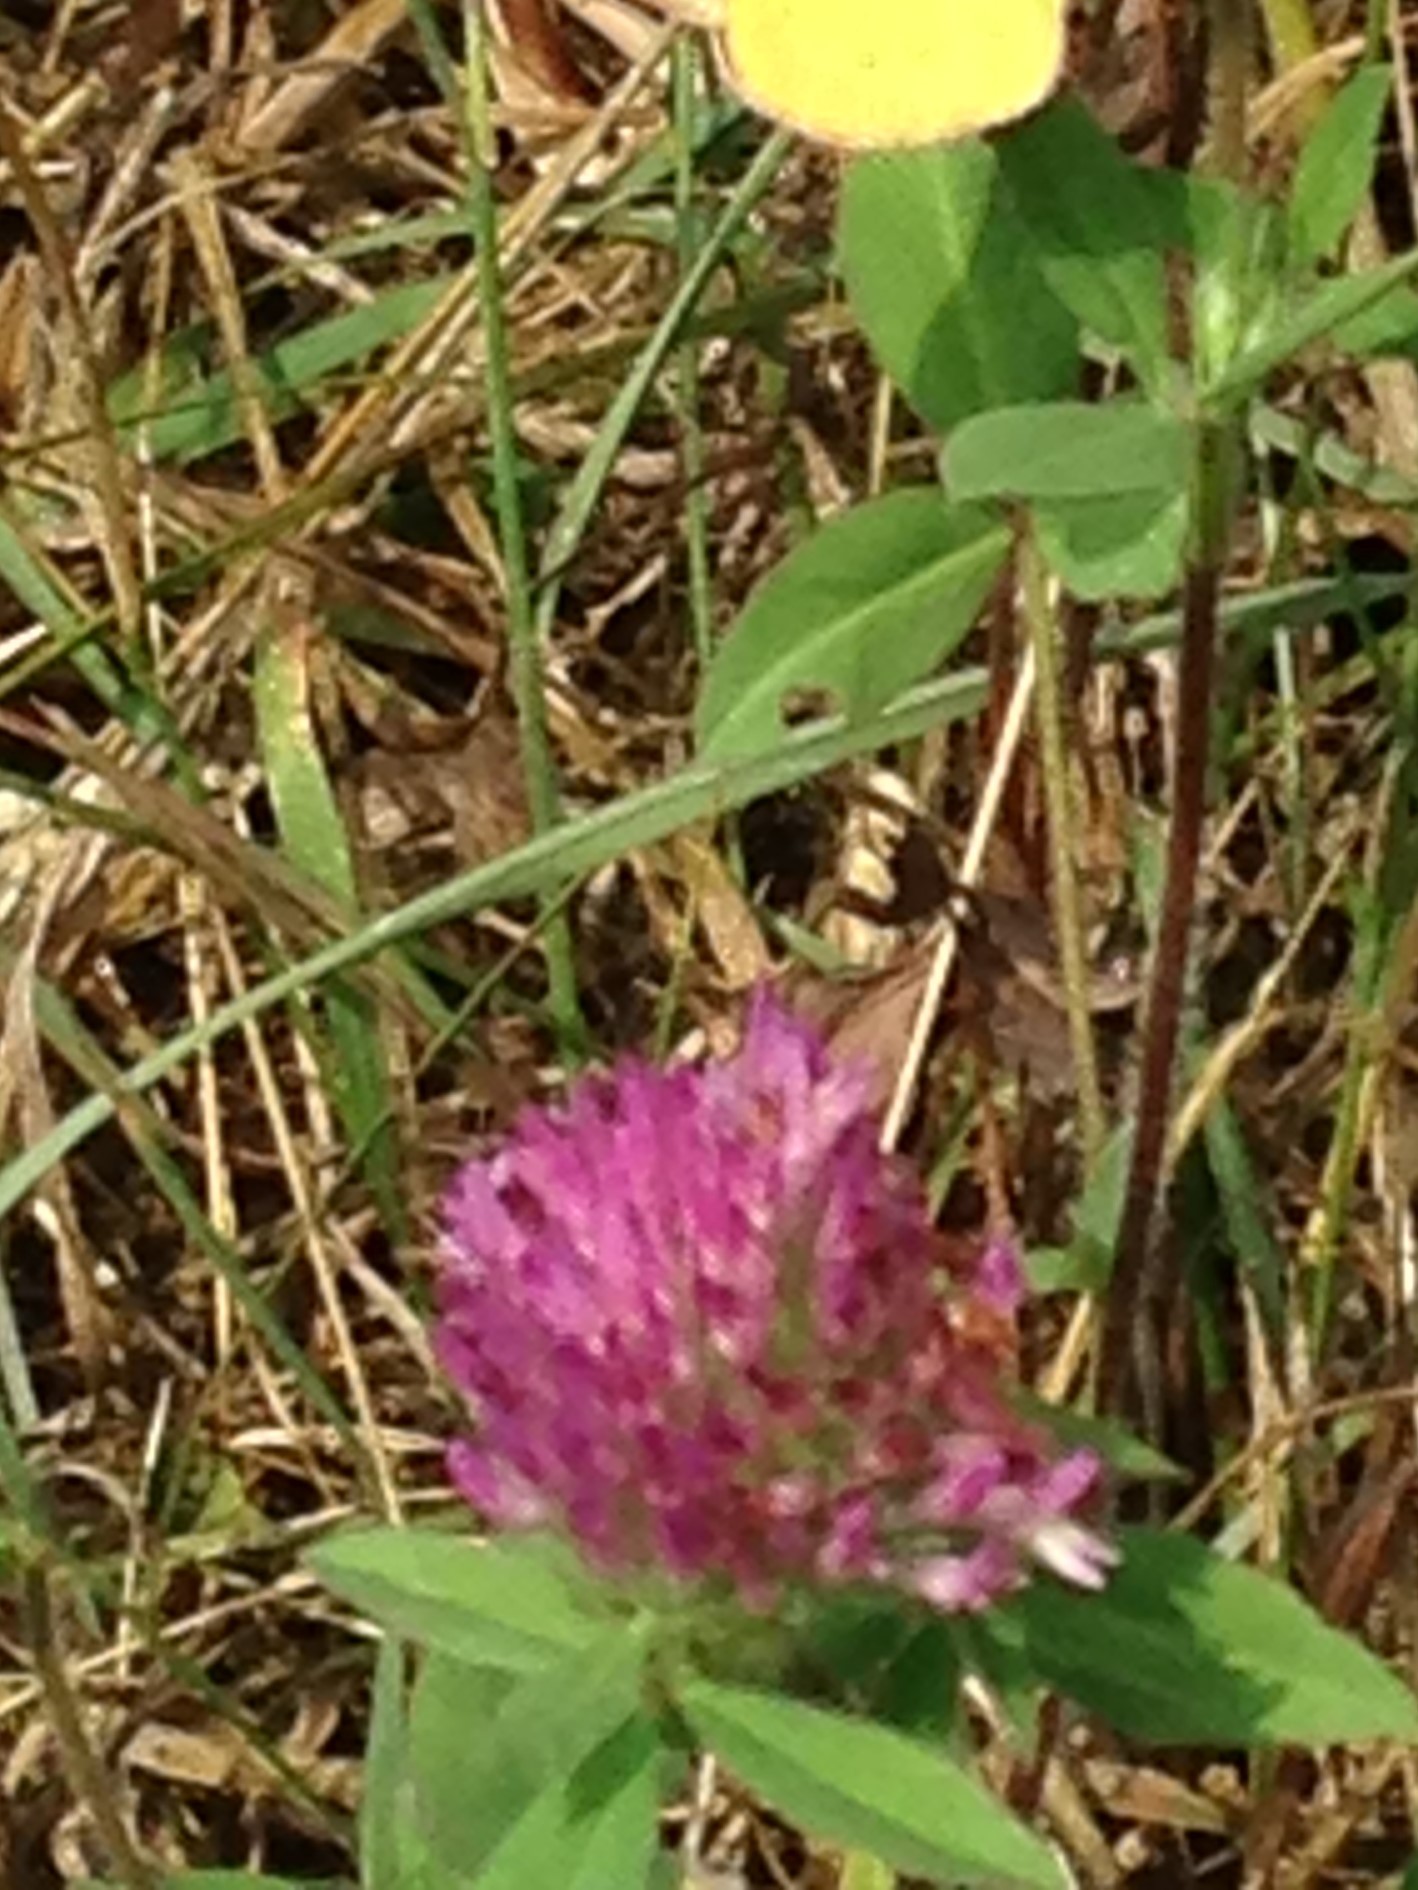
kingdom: Plantae
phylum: Tracheophyta
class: Magnoliopsida
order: Fabales
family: Fabaceae
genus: Trifolium
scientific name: Trifolium pratense
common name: Red clover
